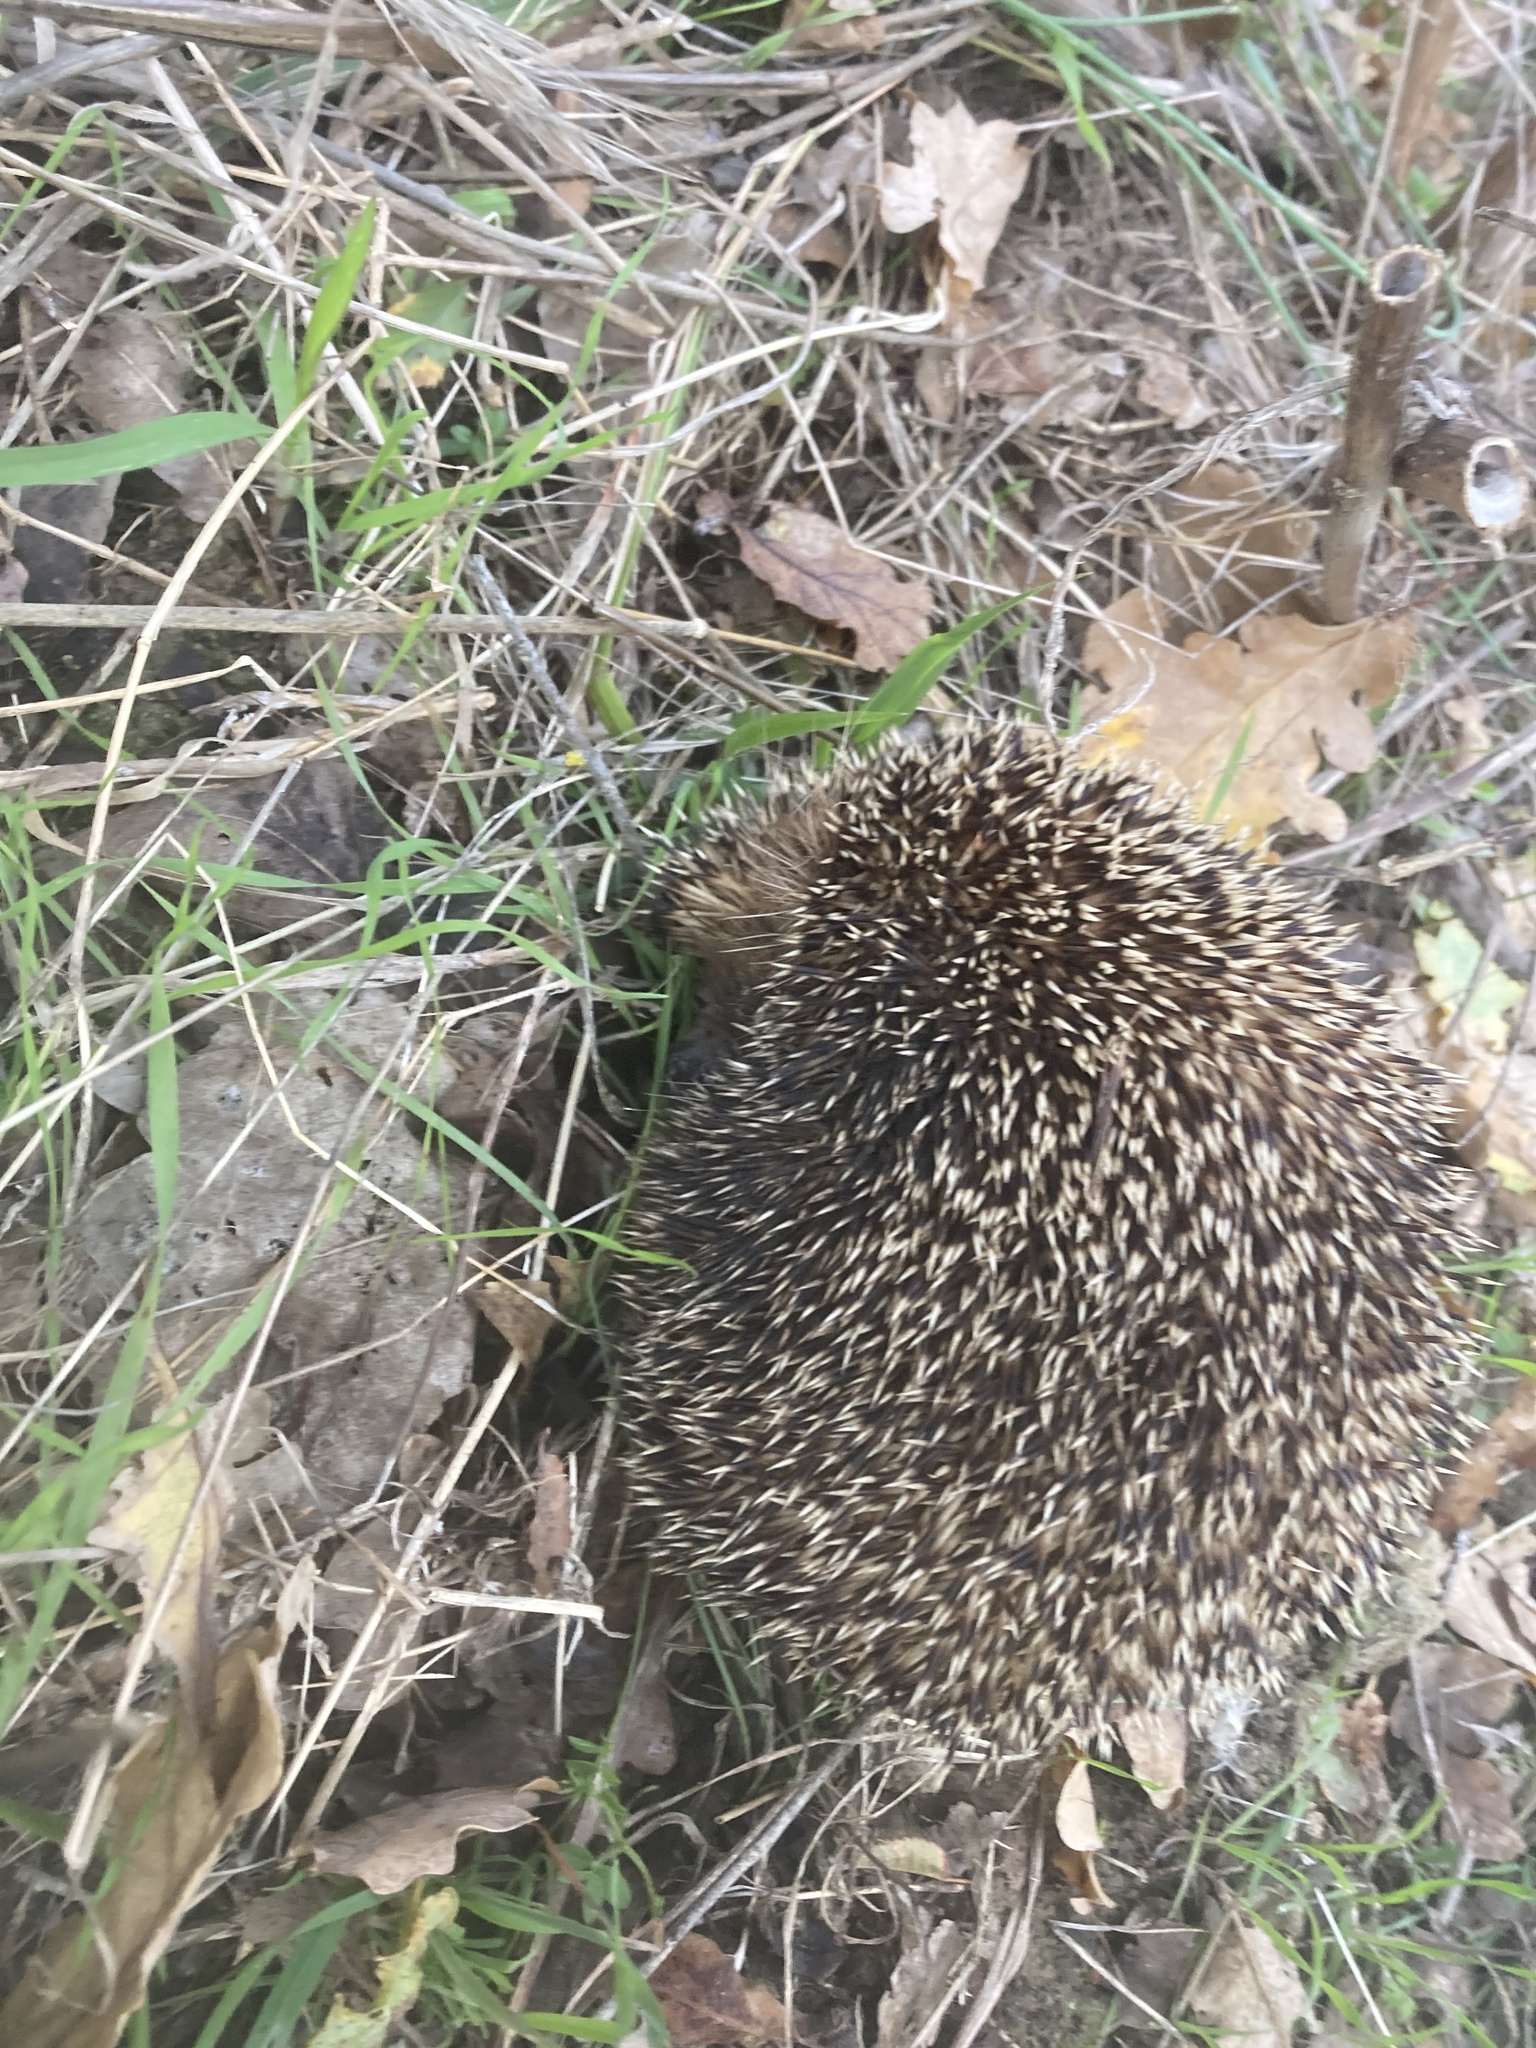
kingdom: Animalia
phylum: Chordata
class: Mammalia
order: Erinaceomorpha
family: Erinaceidae
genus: Erinaceus
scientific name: Erinaceus europaeus
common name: West european hedgehog
